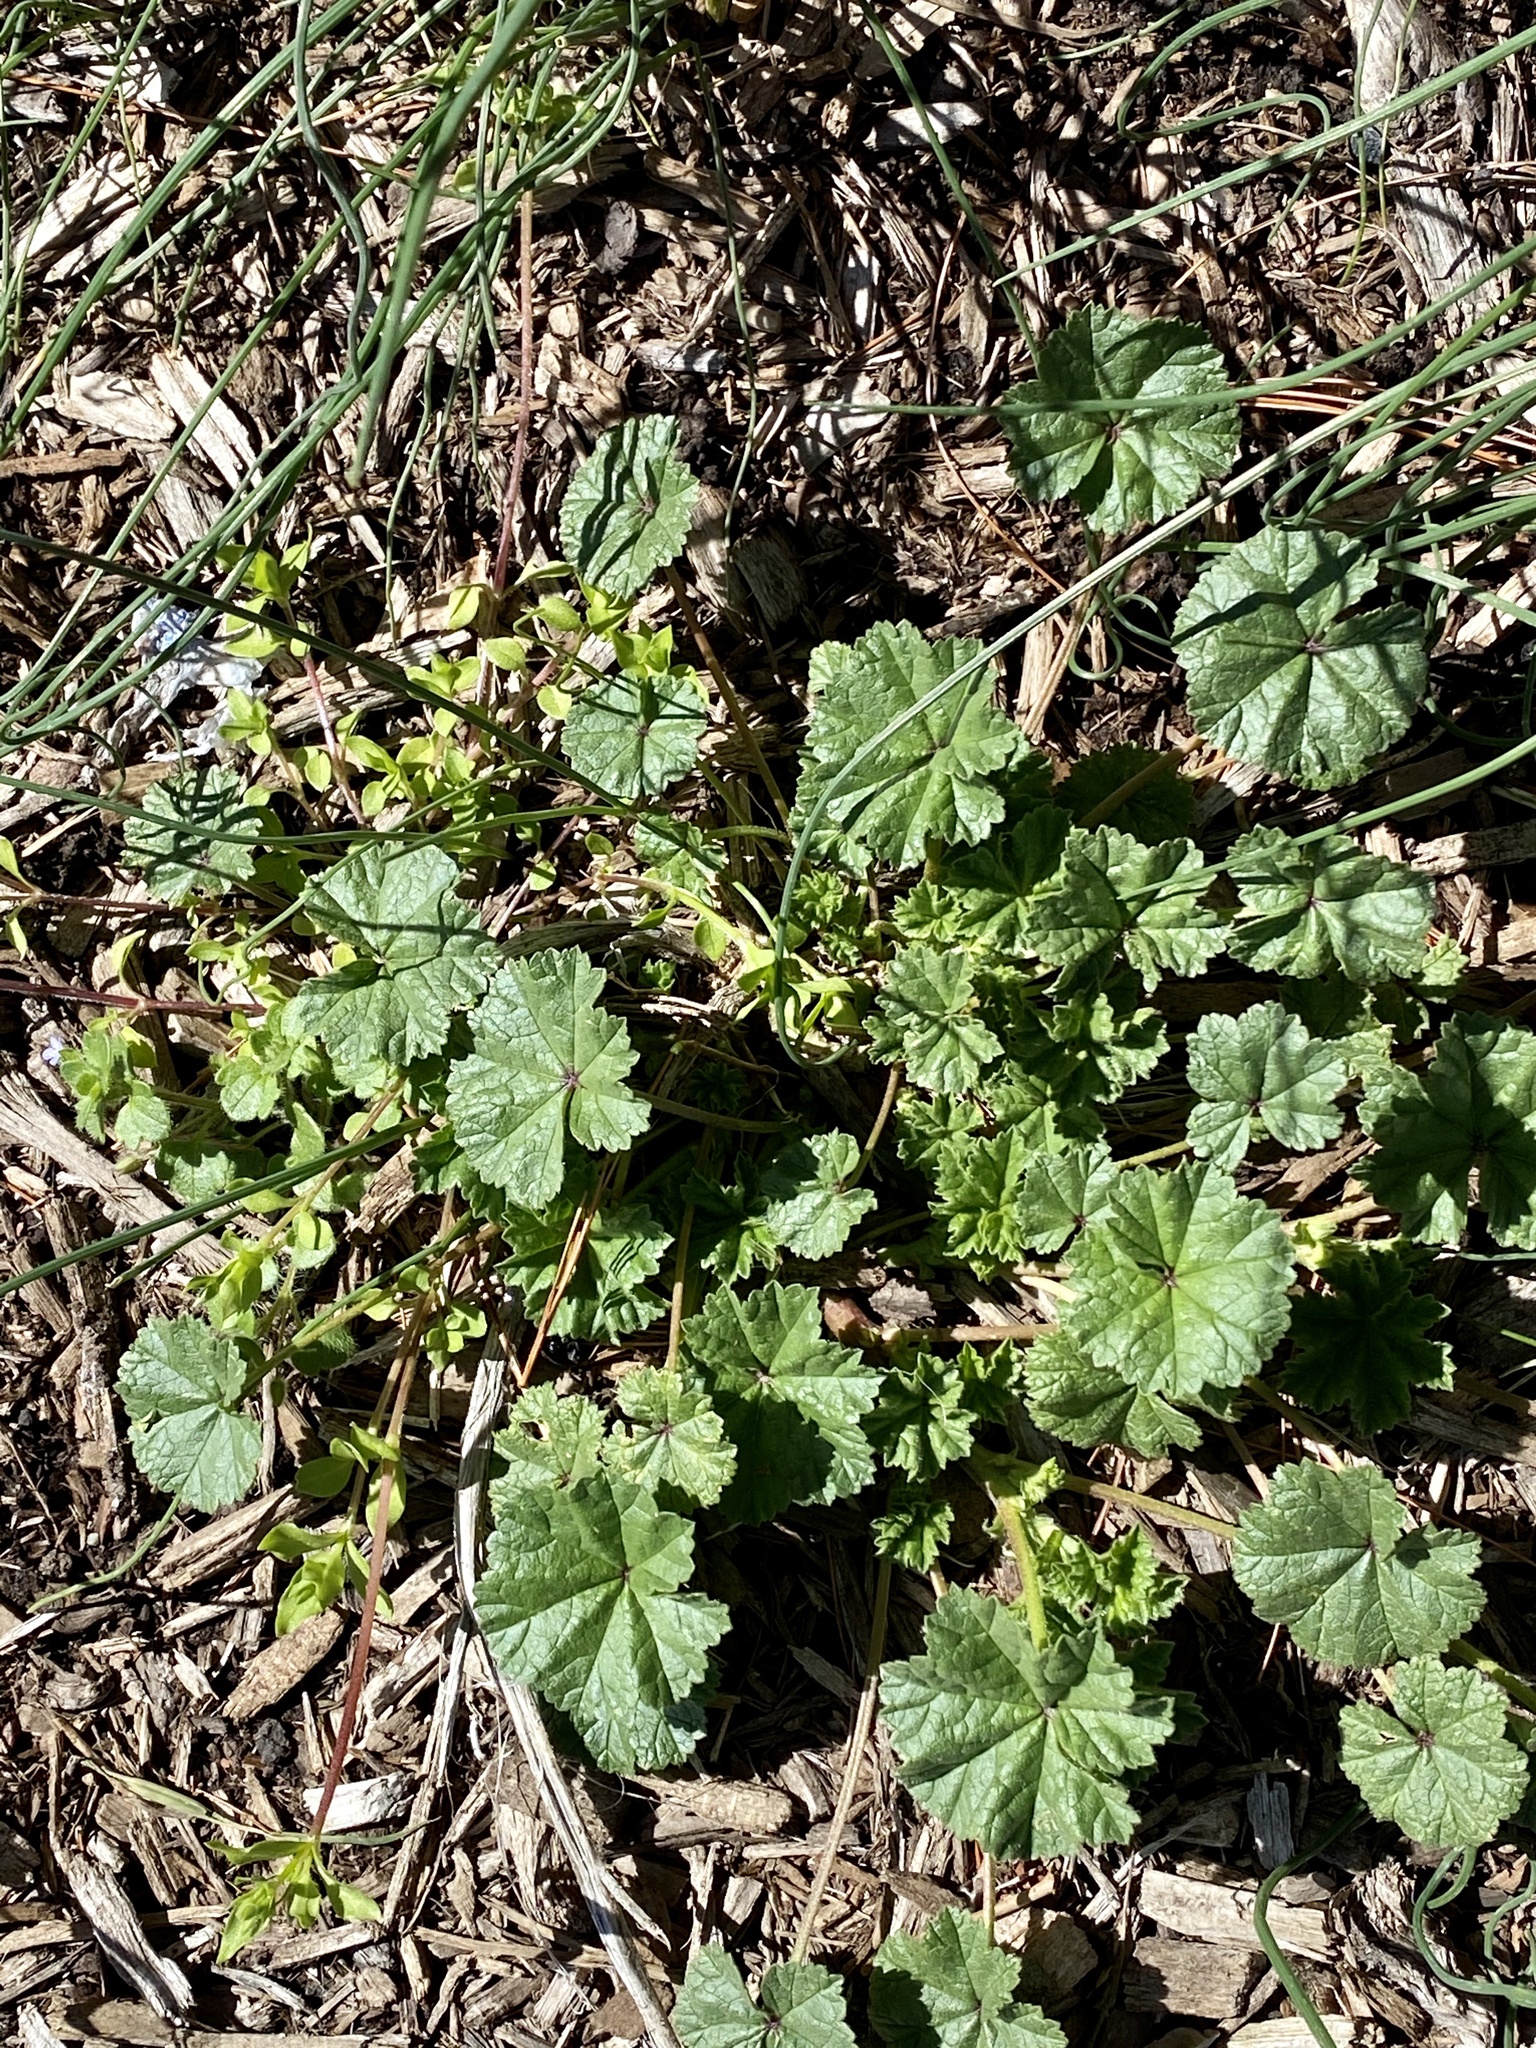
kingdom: Plantae
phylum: Tracheophyta
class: Magnoliopsida
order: Malvales
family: Malvaceae
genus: Malva
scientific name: Malva neglecta
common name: Common mallow
